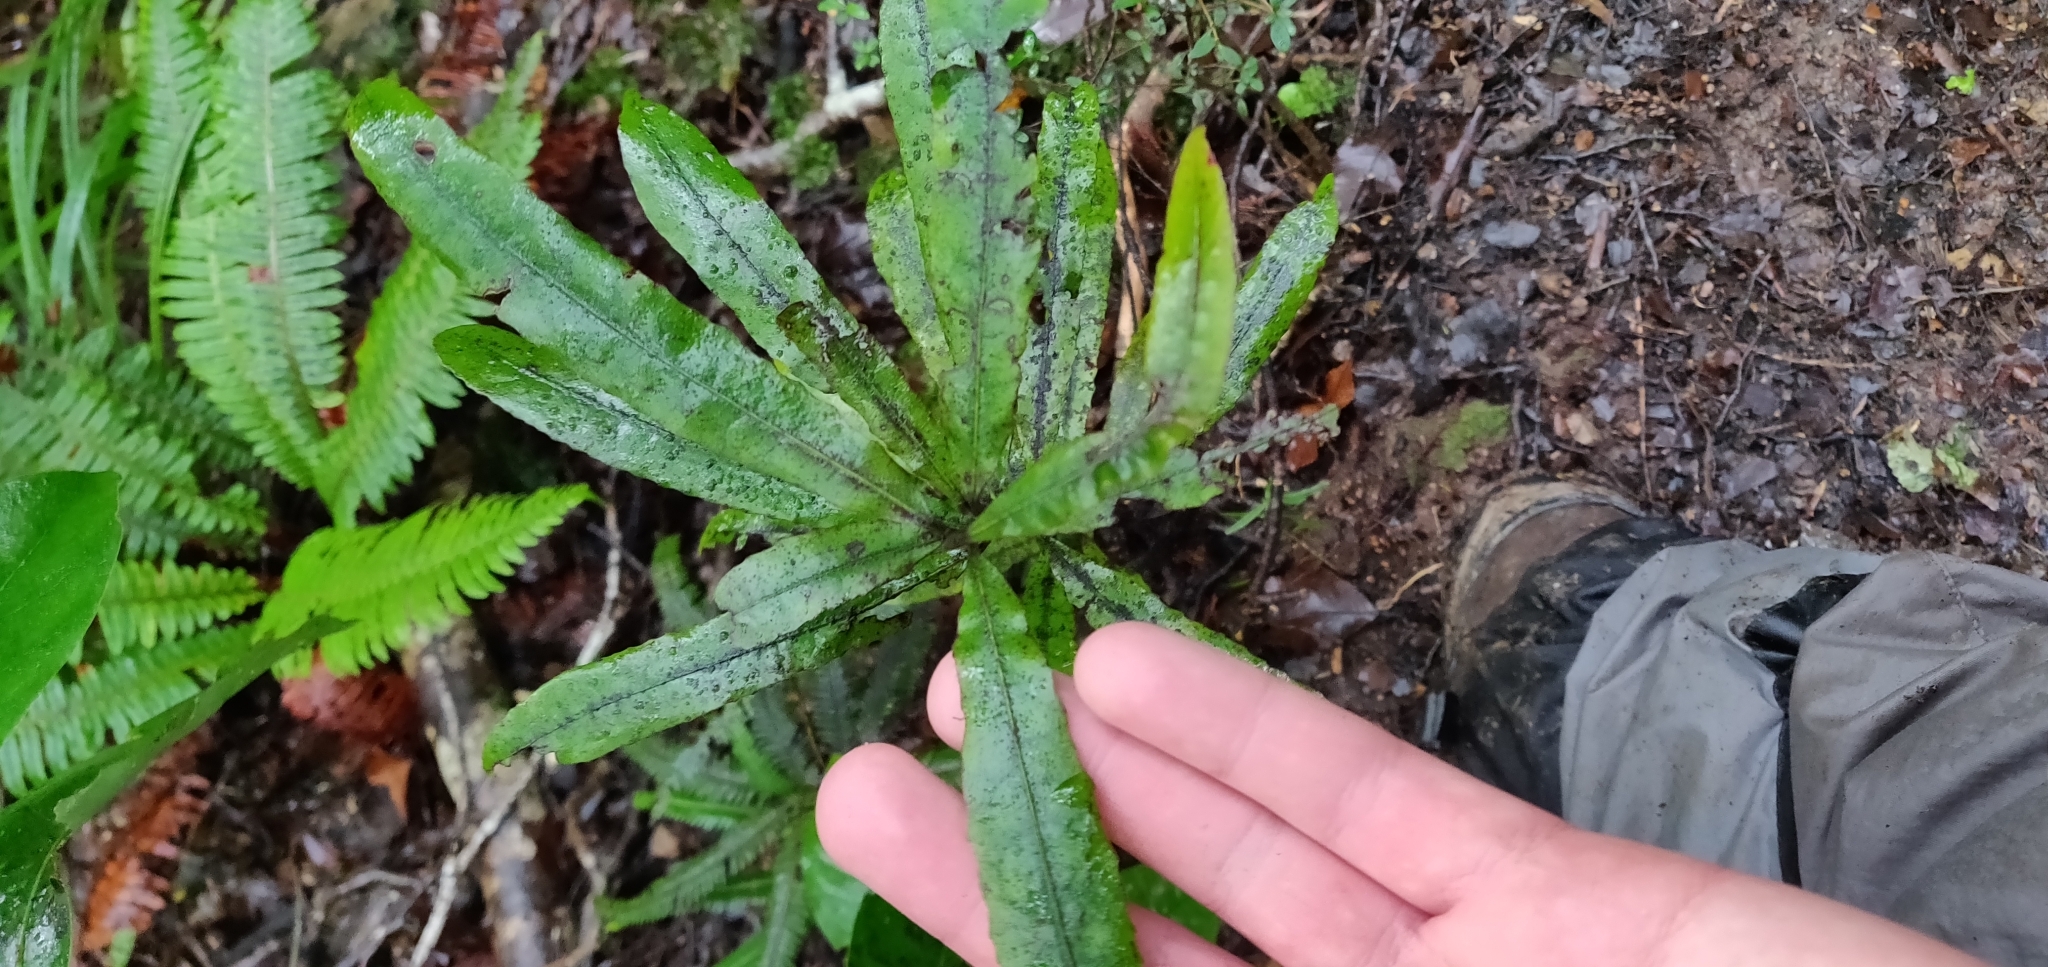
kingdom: Plantae
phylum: Tracheophyta
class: Magnoliopsida
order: Malpighiales
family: Violaceae
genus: Melicytus
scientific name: Melicytus lanceolatus
